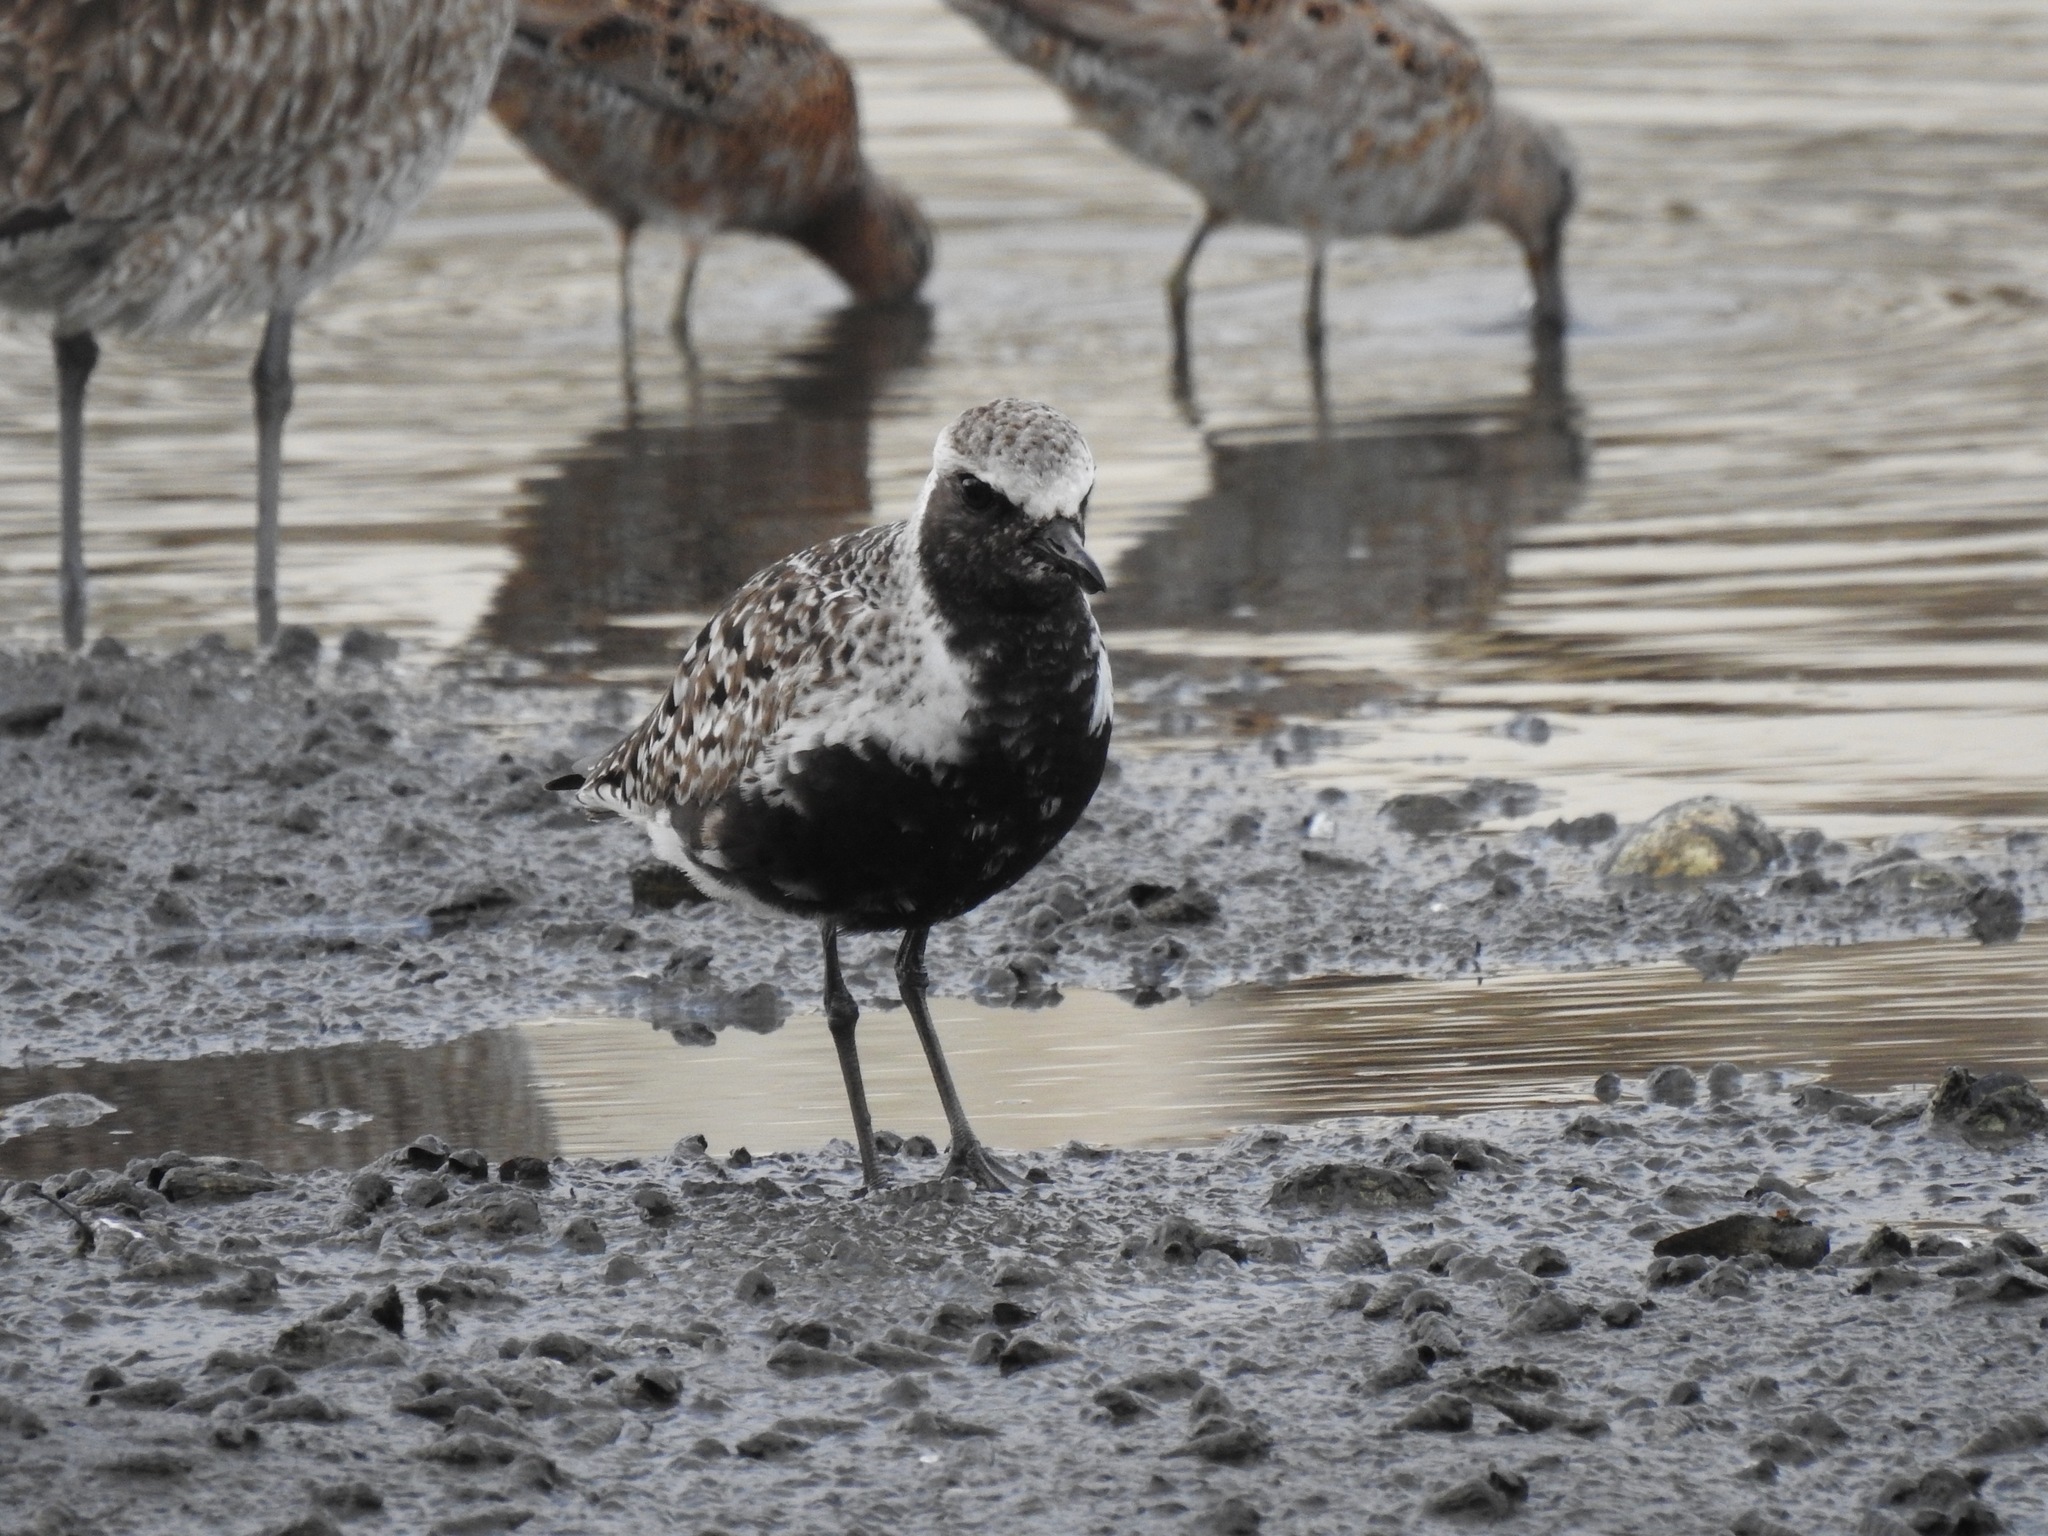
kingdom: Animalia
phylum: Chordata
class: Aves
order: Charadriiformes
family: Charadriidae
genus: Pluvialis
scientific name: Pluvialis squatarola
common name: Grey plover
